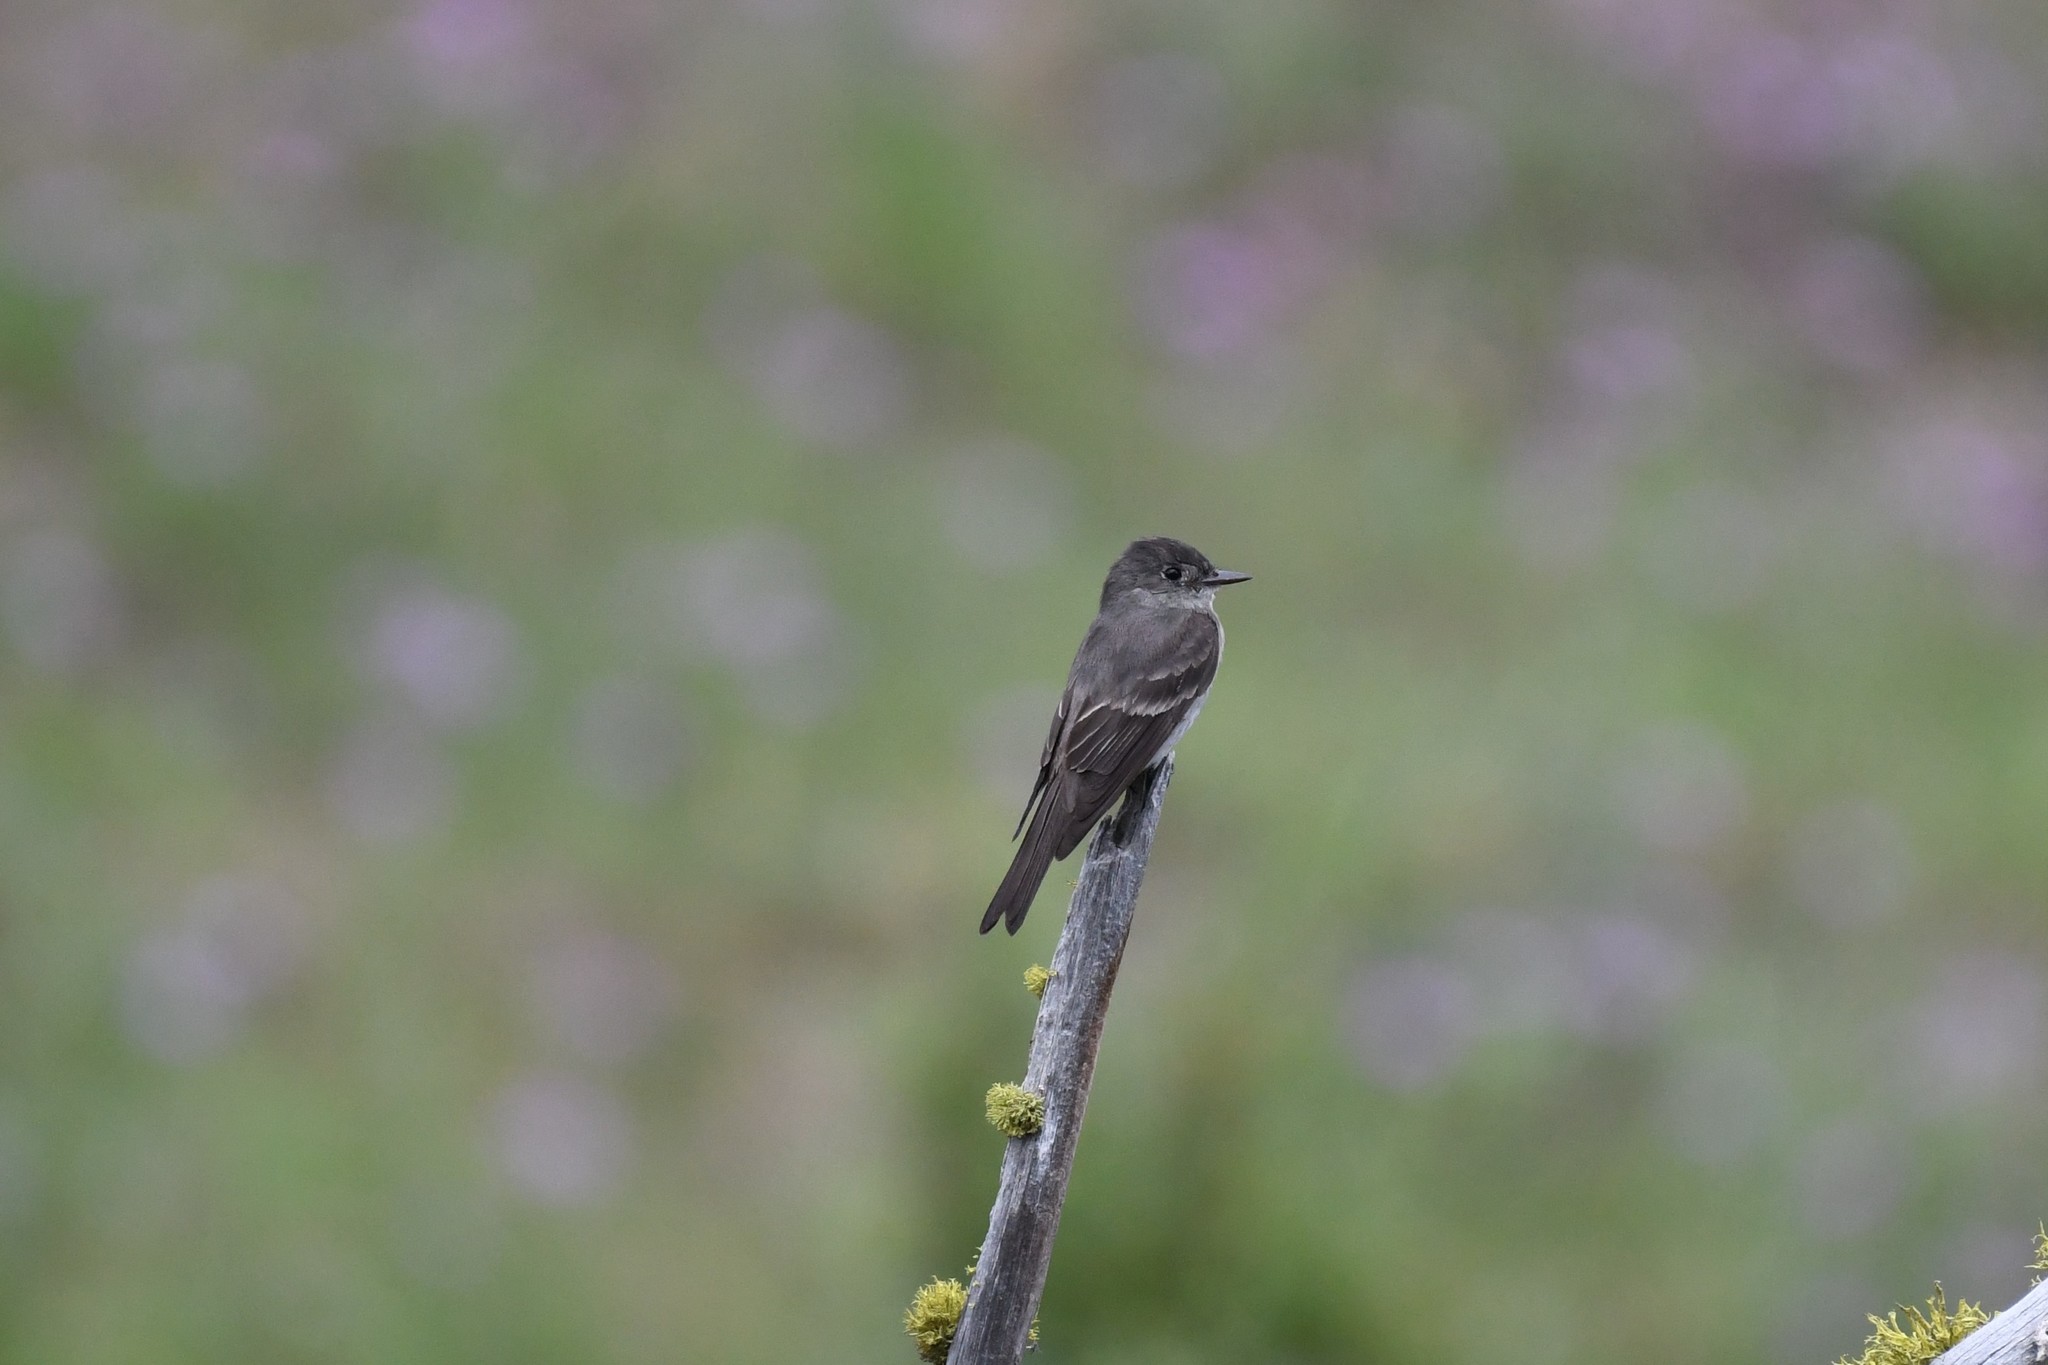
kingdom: Animalia
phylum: Chordata
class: Aves
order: Passeriformes
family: Tyrannidae
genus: Contopus
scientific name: Contopus sordidulus
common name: Western wood-pewee
